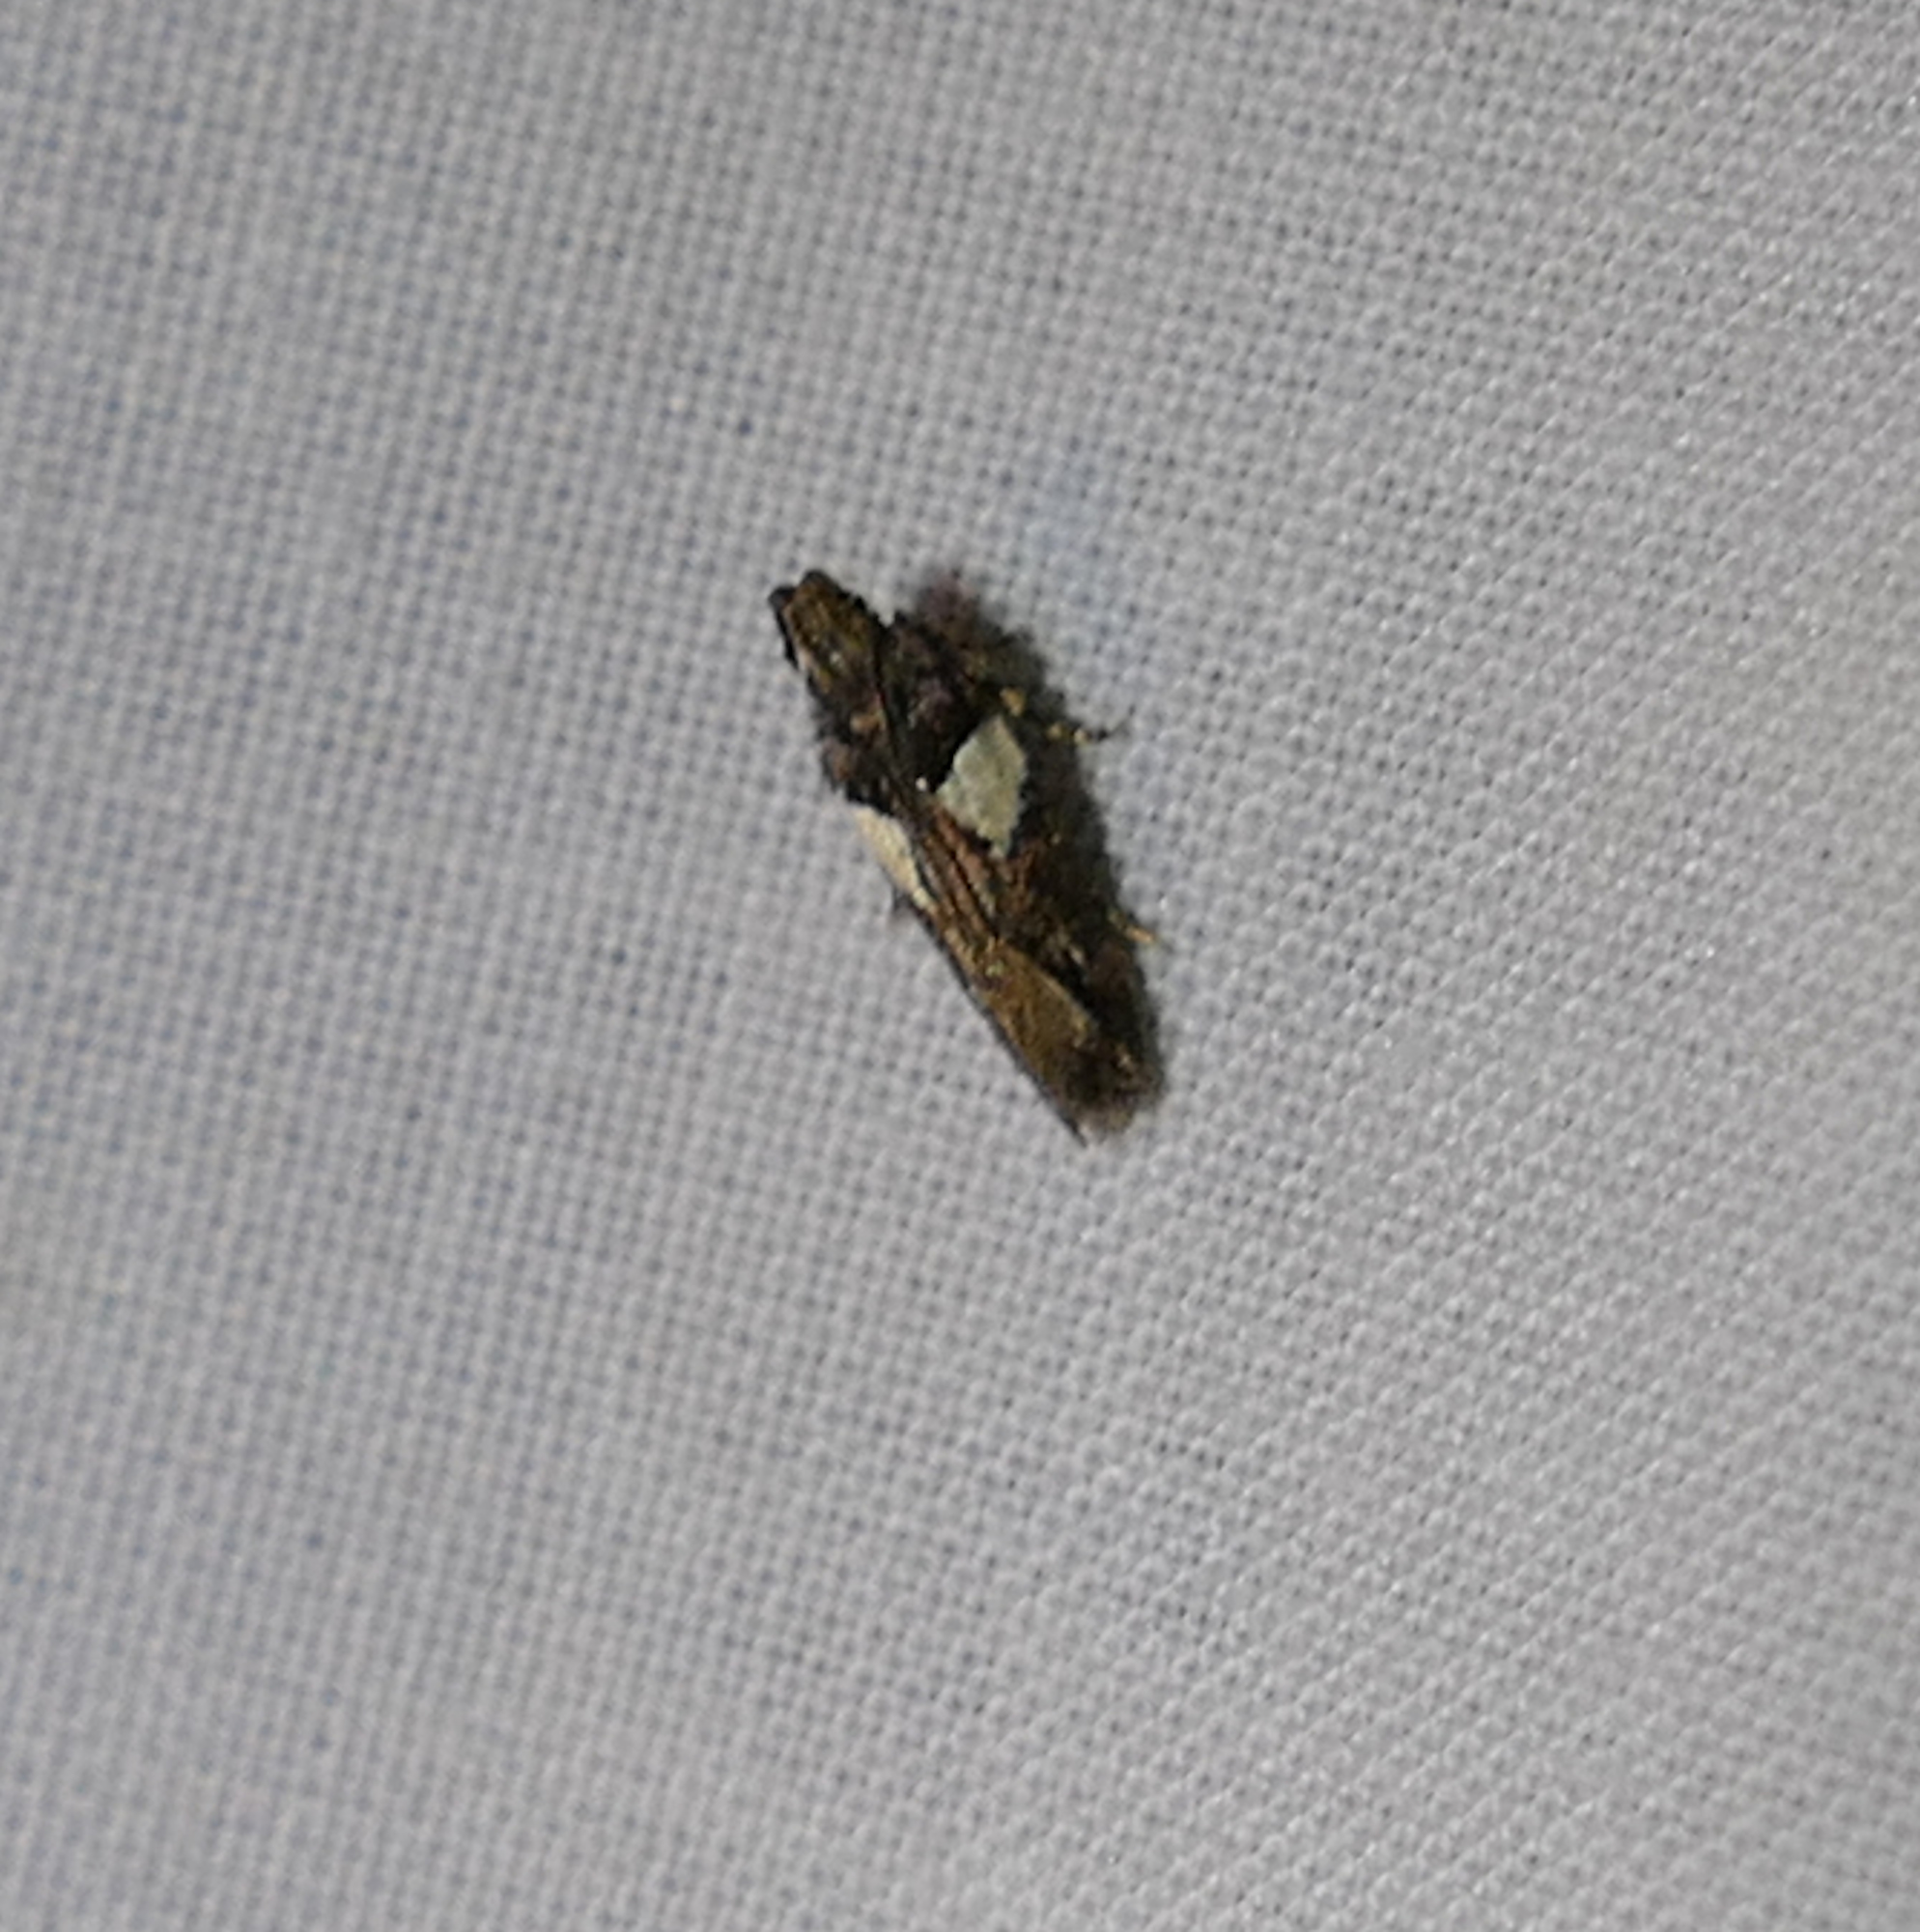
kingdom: Animalia
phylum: Arthropoda
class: Insecta
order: Lepidoptera
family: Gelechiidae
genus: Friseria
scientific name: Friseria acaciella
